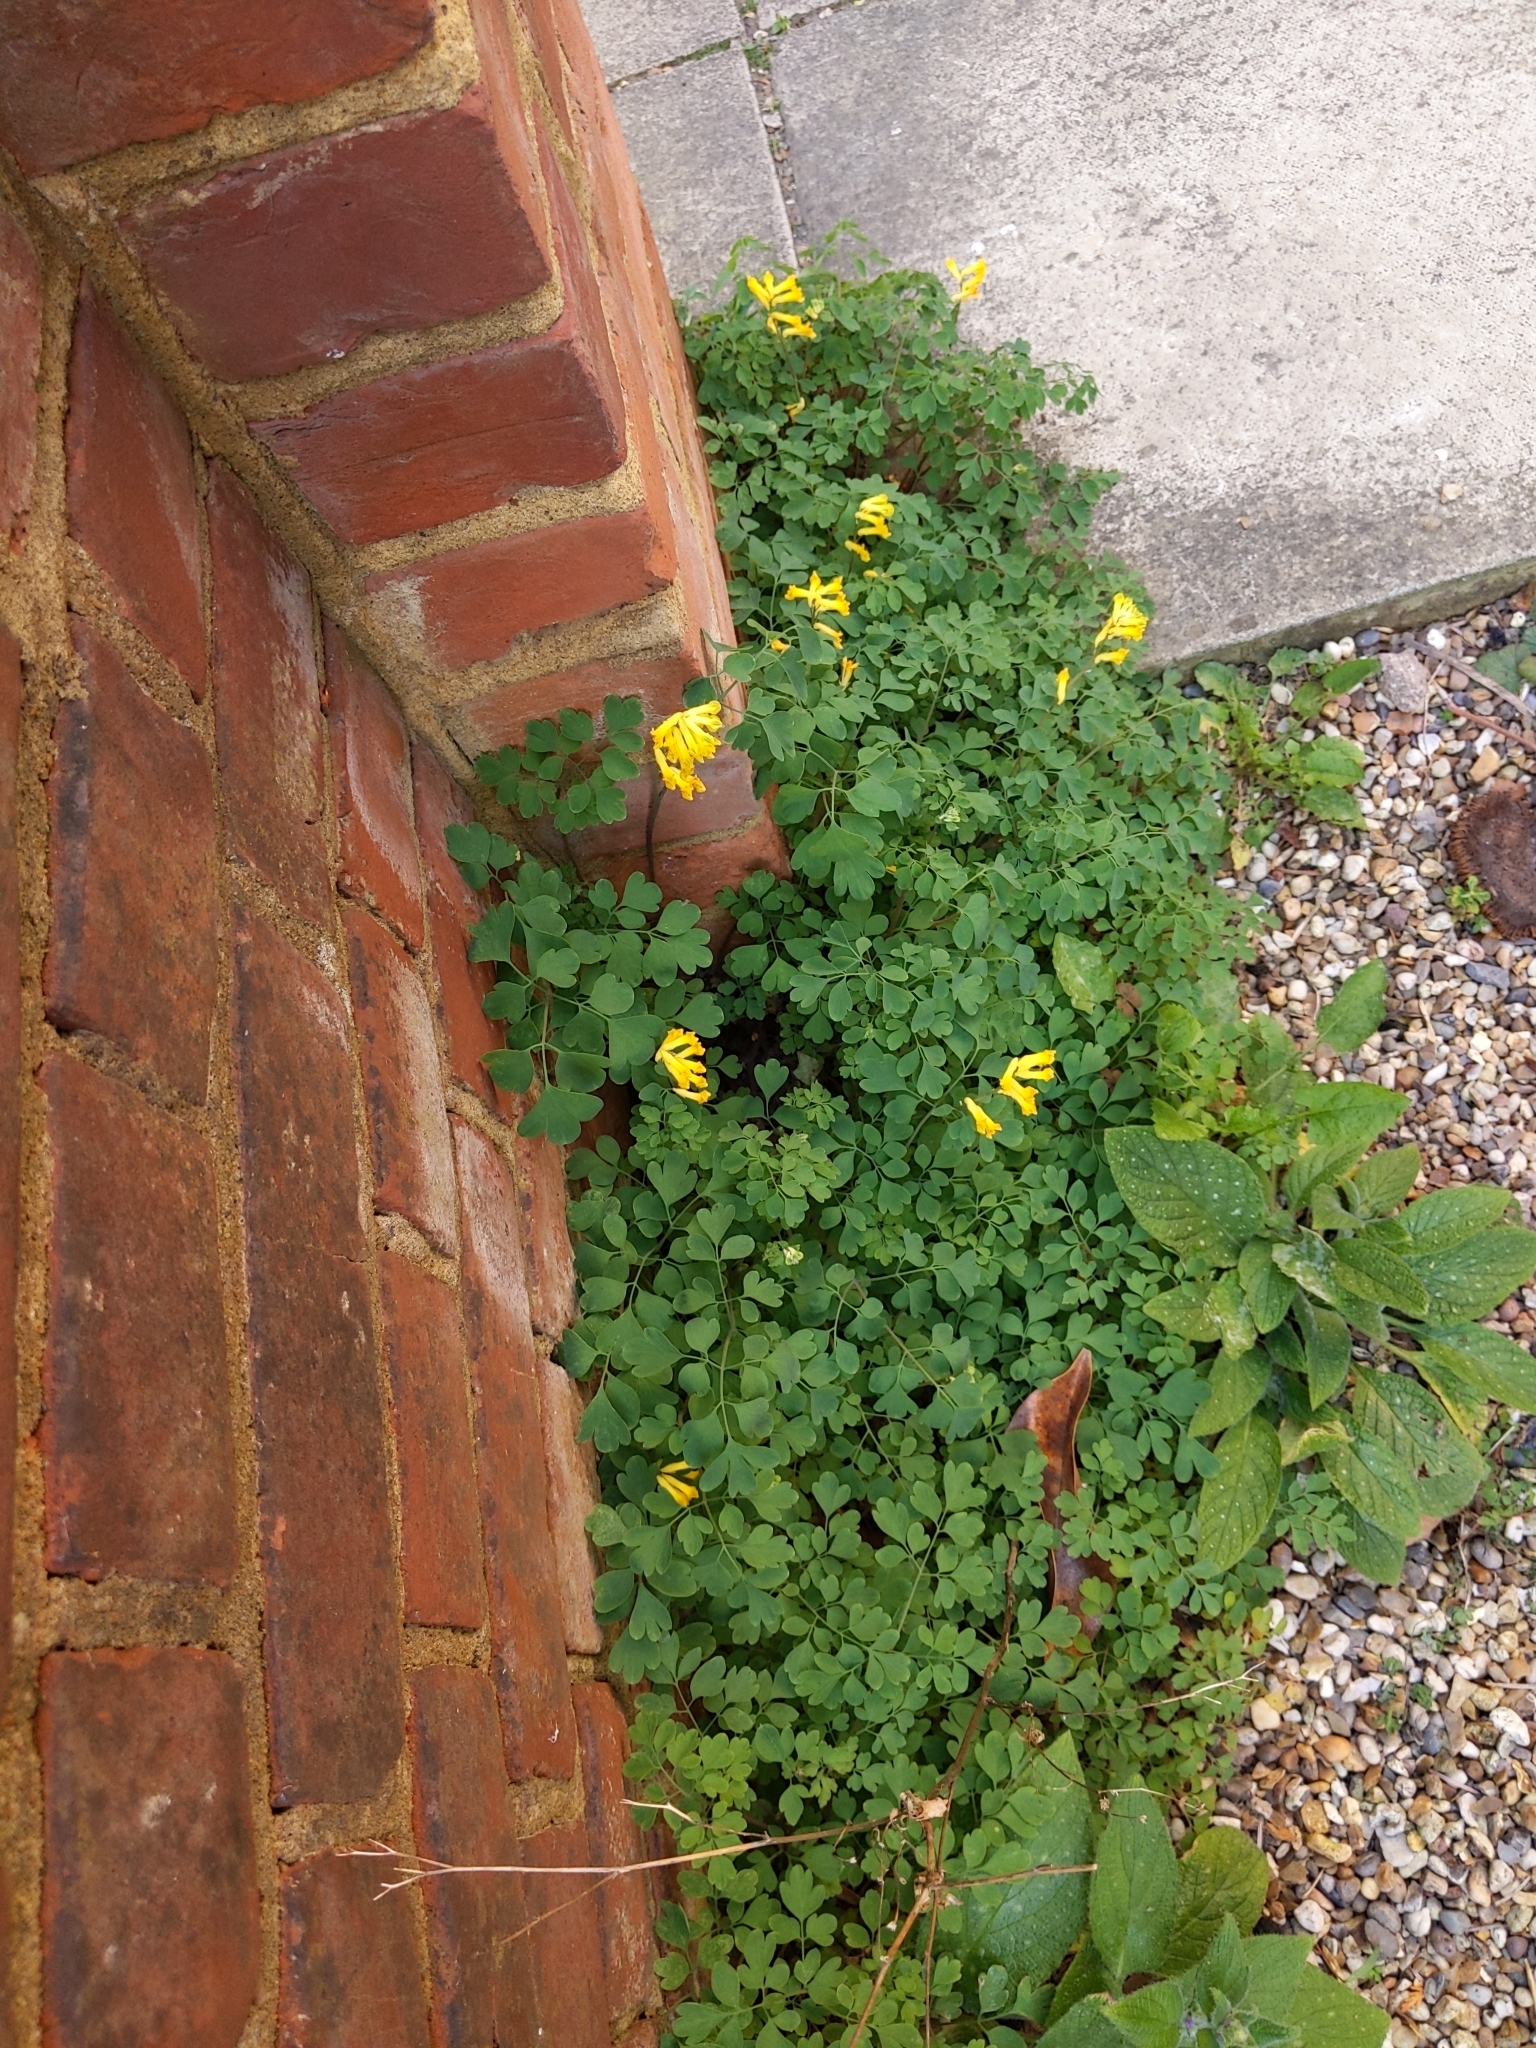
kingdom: Plantae
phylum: Tracheophyta
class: Magnoliopsida
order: Ranunculales
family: Papaveraceae
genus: Pseudofumaria
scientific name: Pseudofumaria lutea
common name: Yellow corydalis
